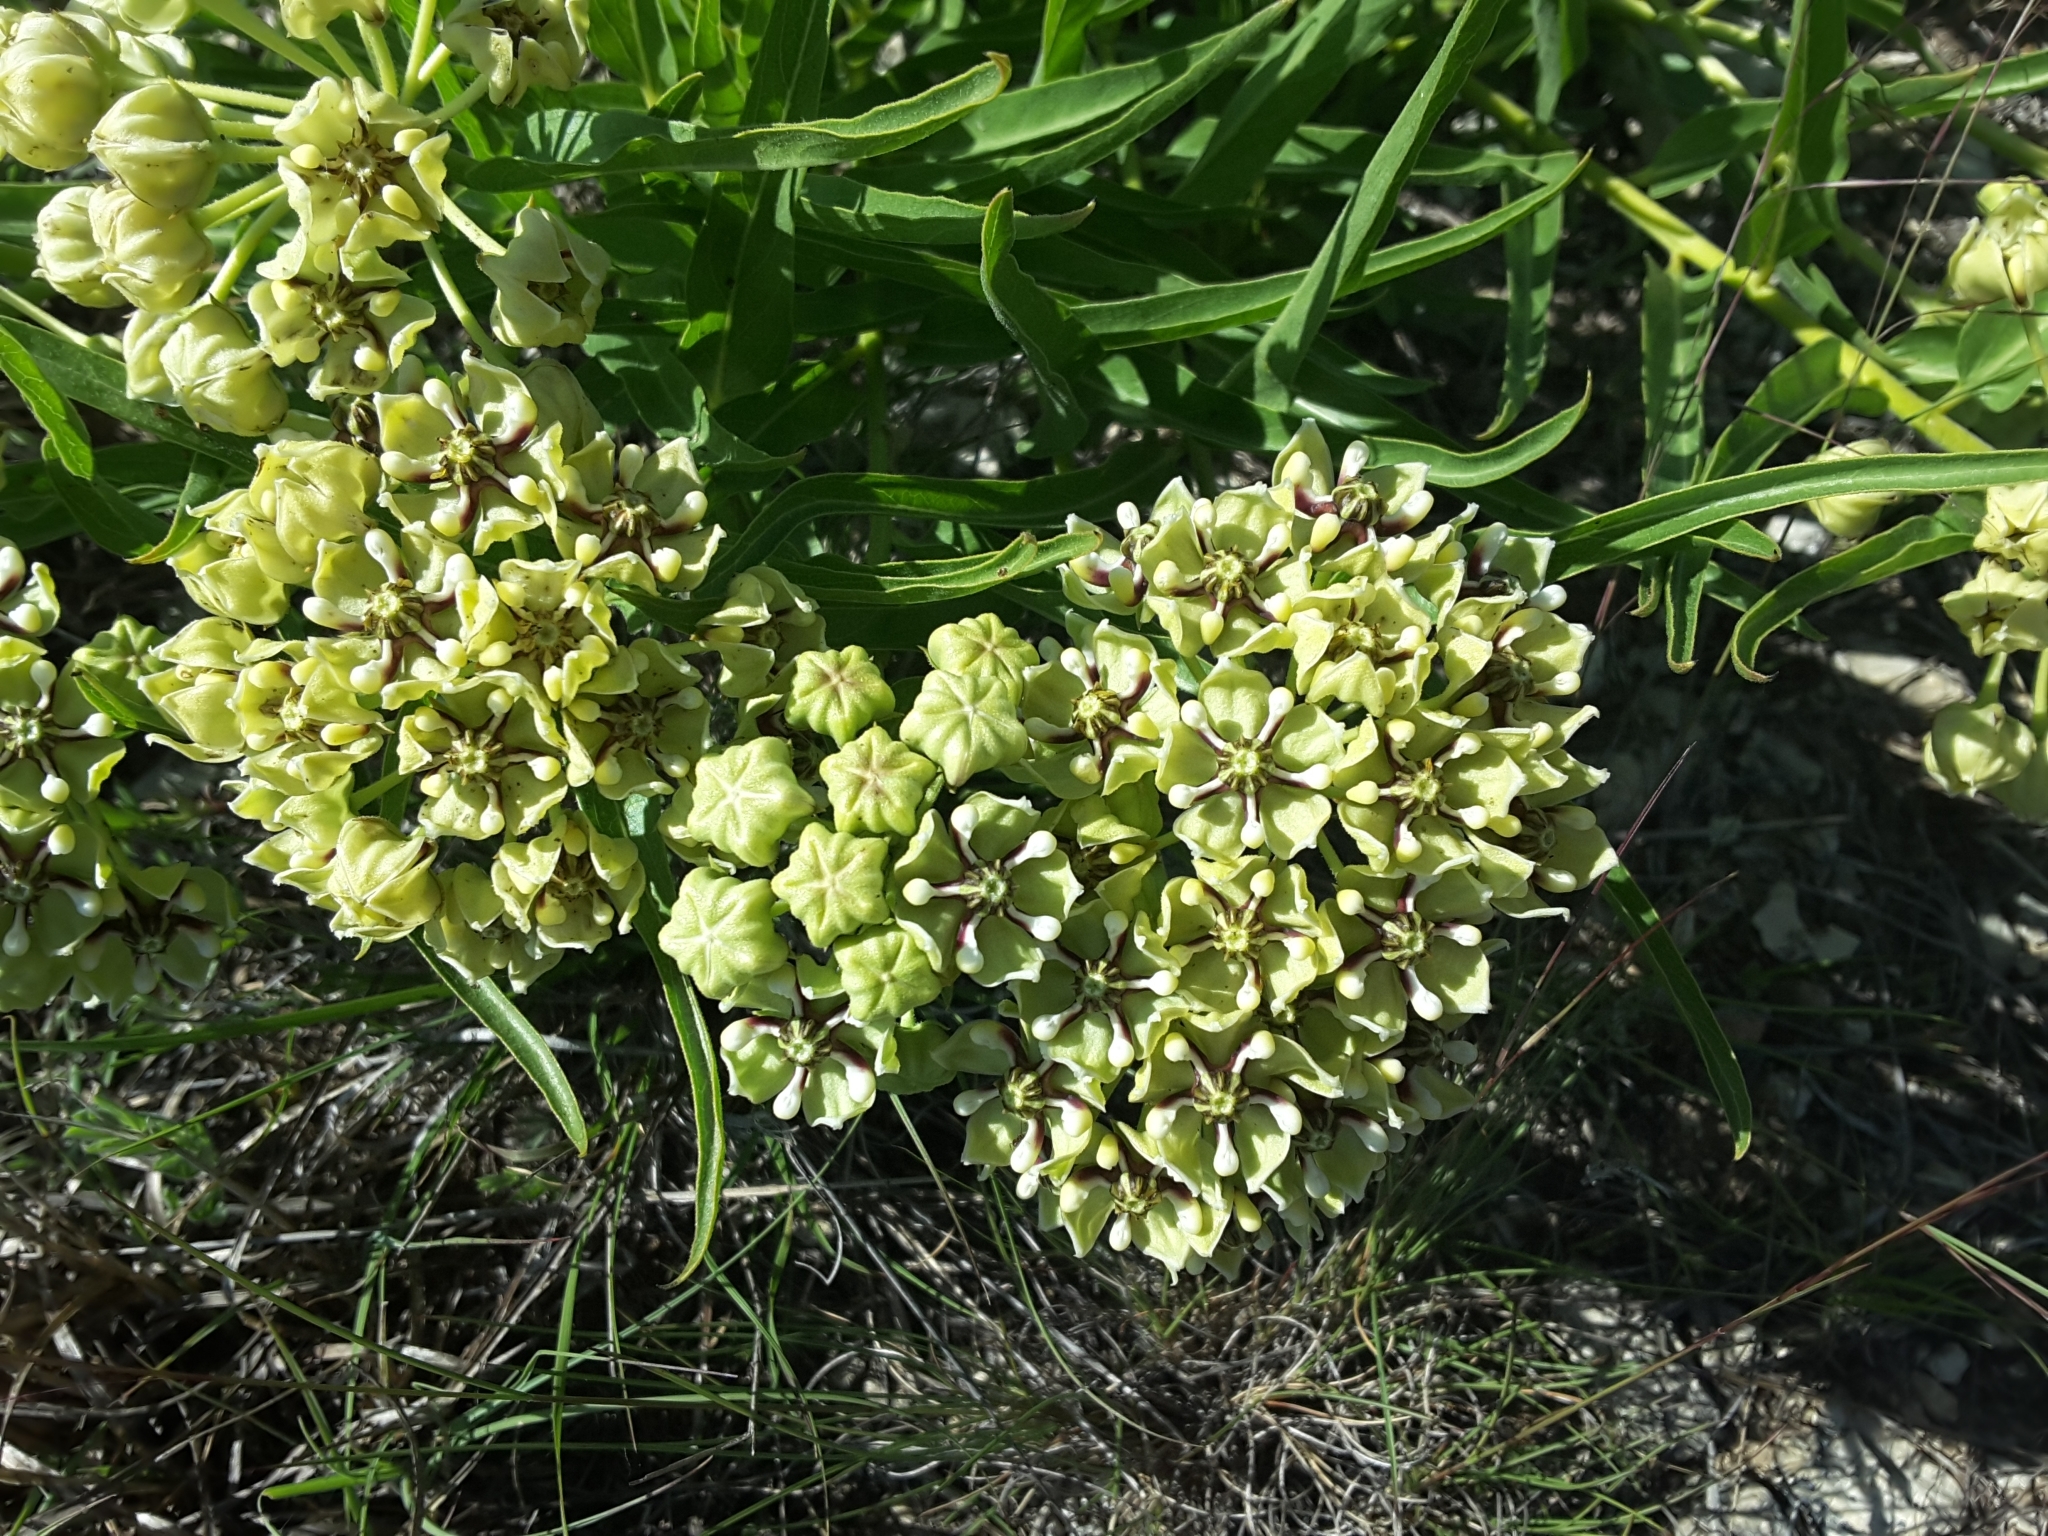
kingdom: Plantae
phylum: Tracheophyta
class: Magnoliopsida
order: Gentianales
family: Apocynaceae
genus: Asclepias
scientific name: Asclepias asperula
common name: Antelope horns
